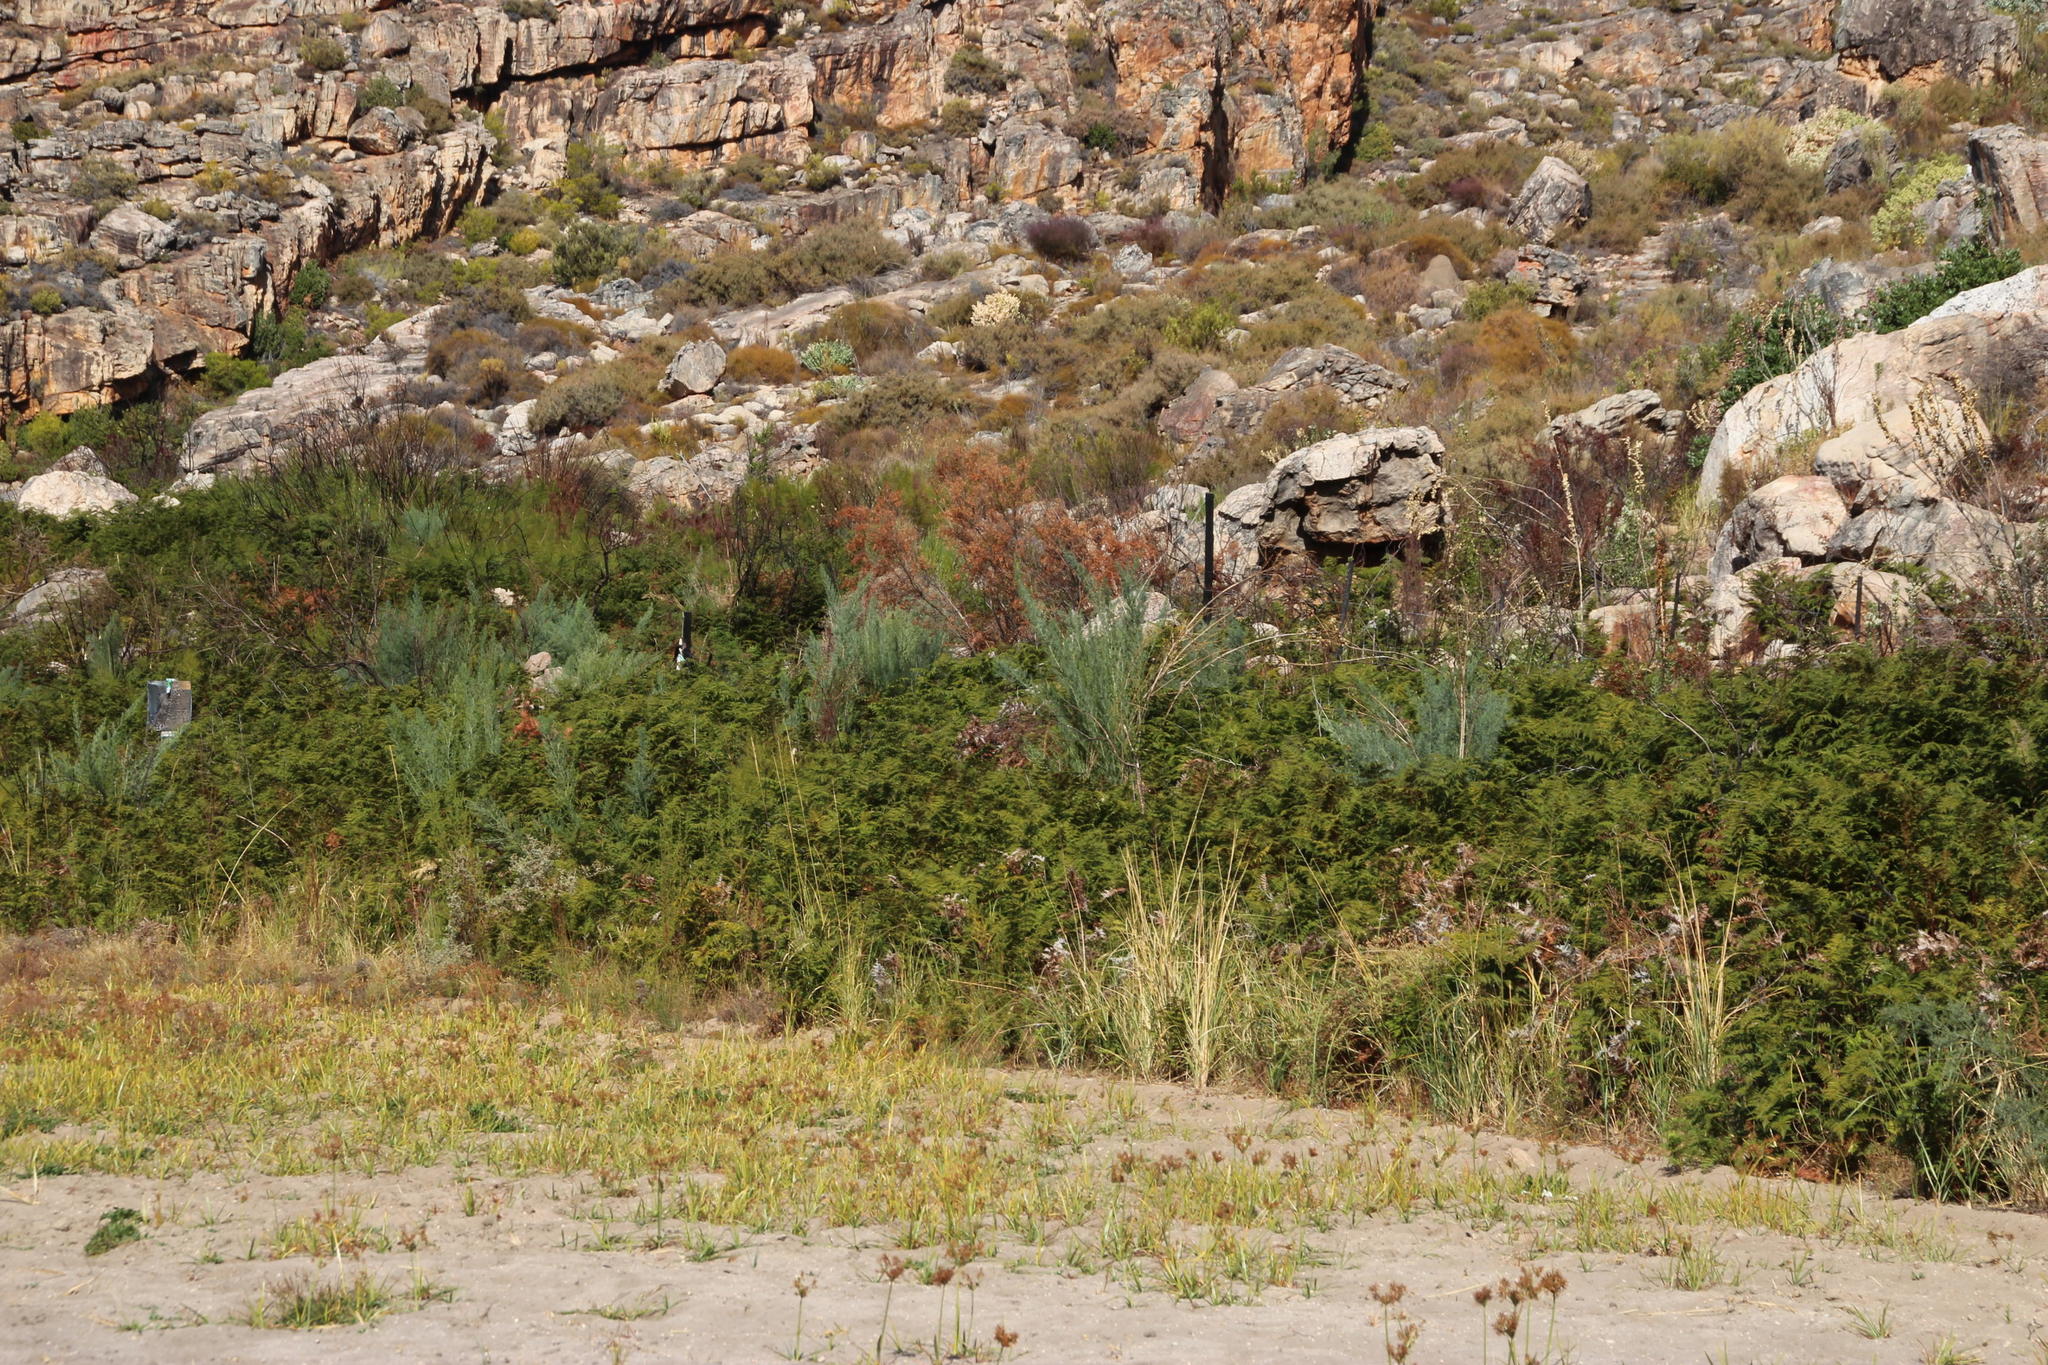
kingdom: Plantae
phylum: Tracheophyta
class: Magnoliopsida
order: Fabales
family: Fabaceae
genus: Psoralea
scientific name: Psoralea verrucosa
